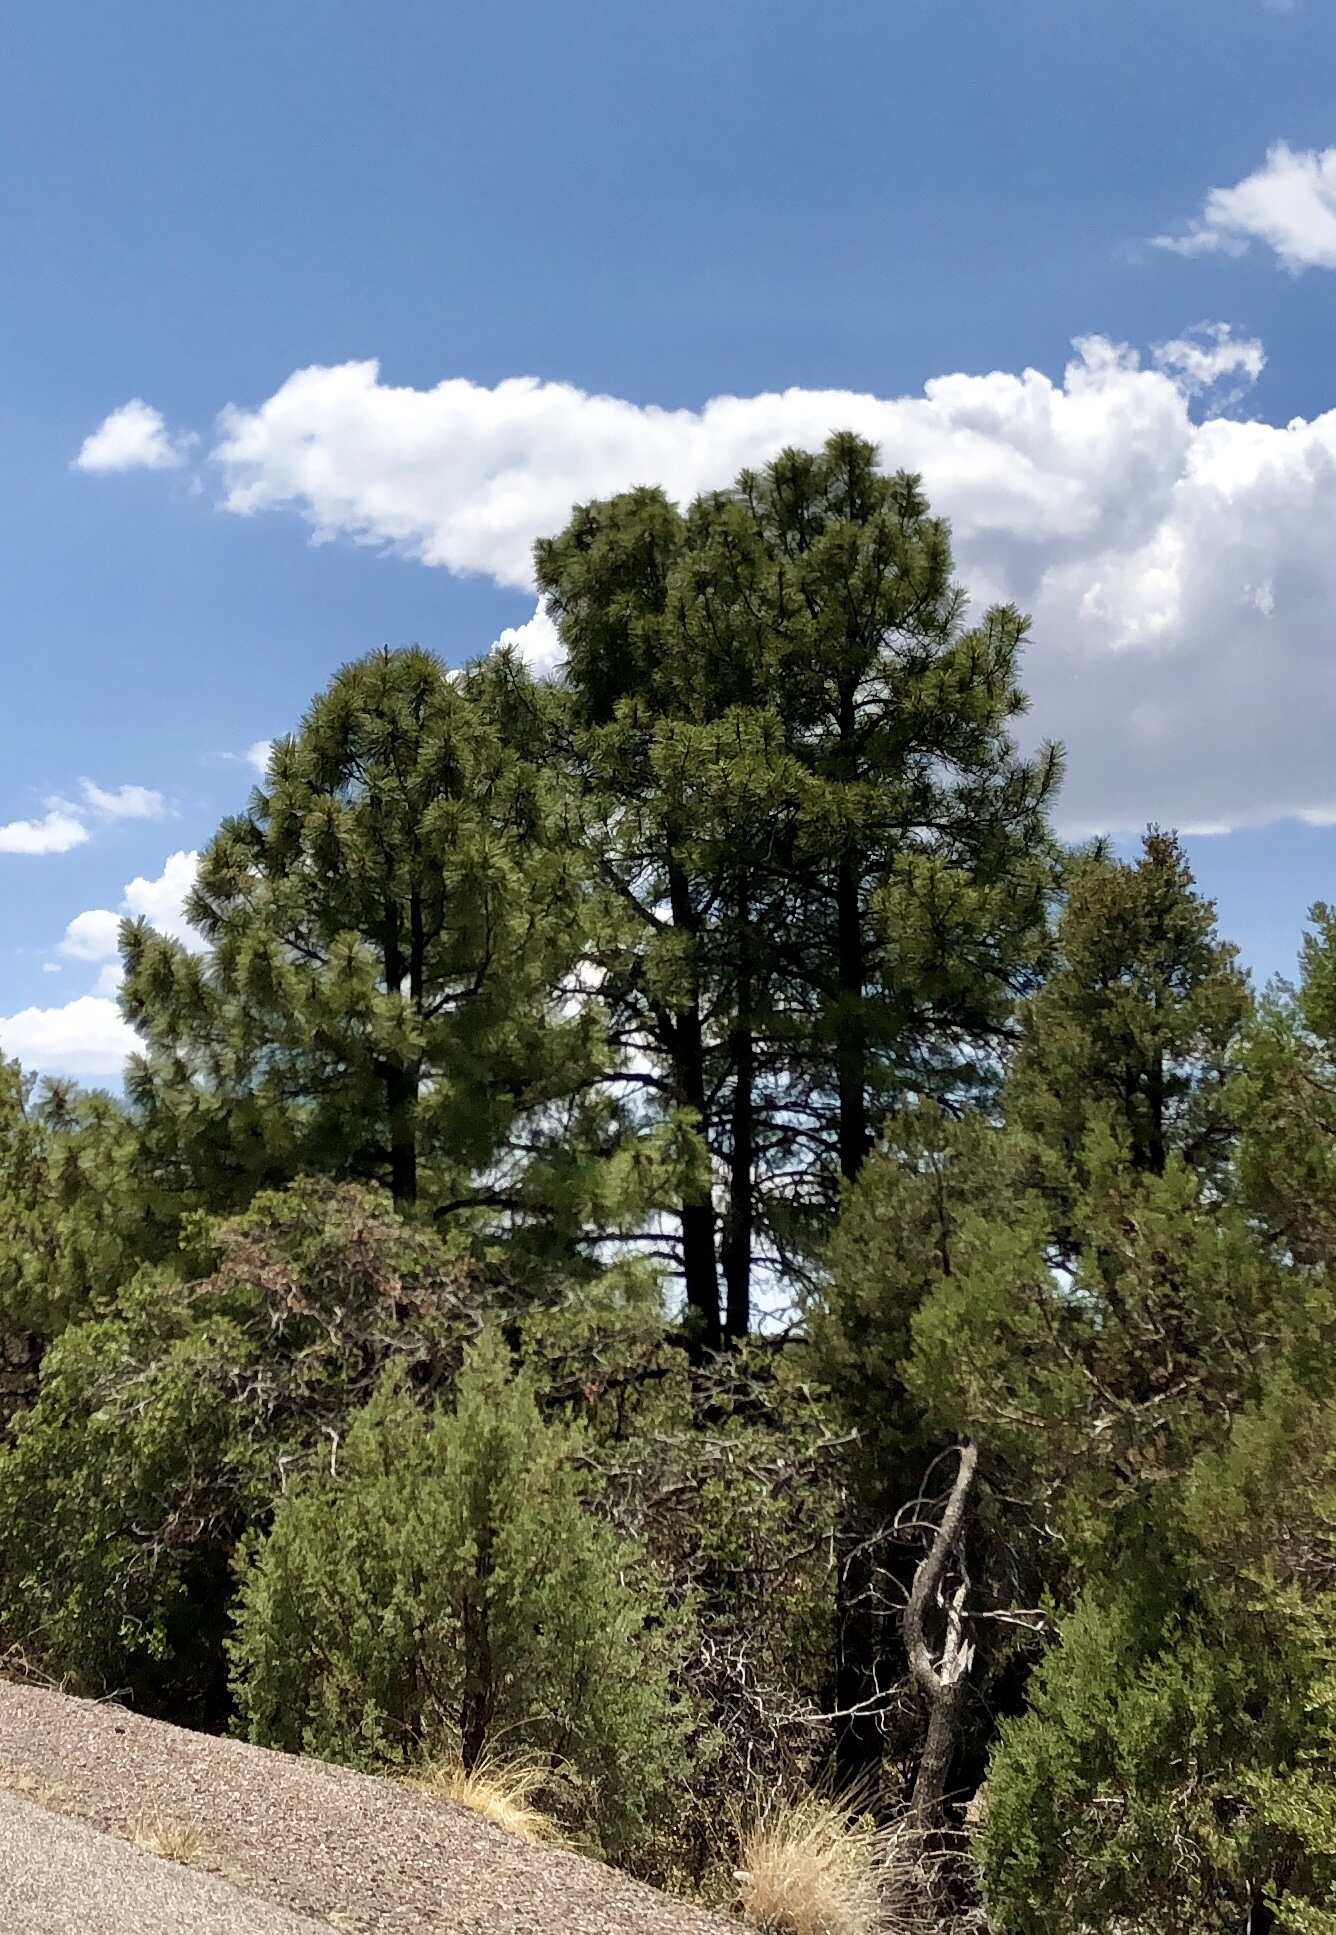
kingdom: Plantae
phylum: Tracheophyta
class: Pinopsida
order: Pinales
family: Pinaceae
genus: Pinus
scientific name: Pinus ponderosa
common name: Western yellow-pine
